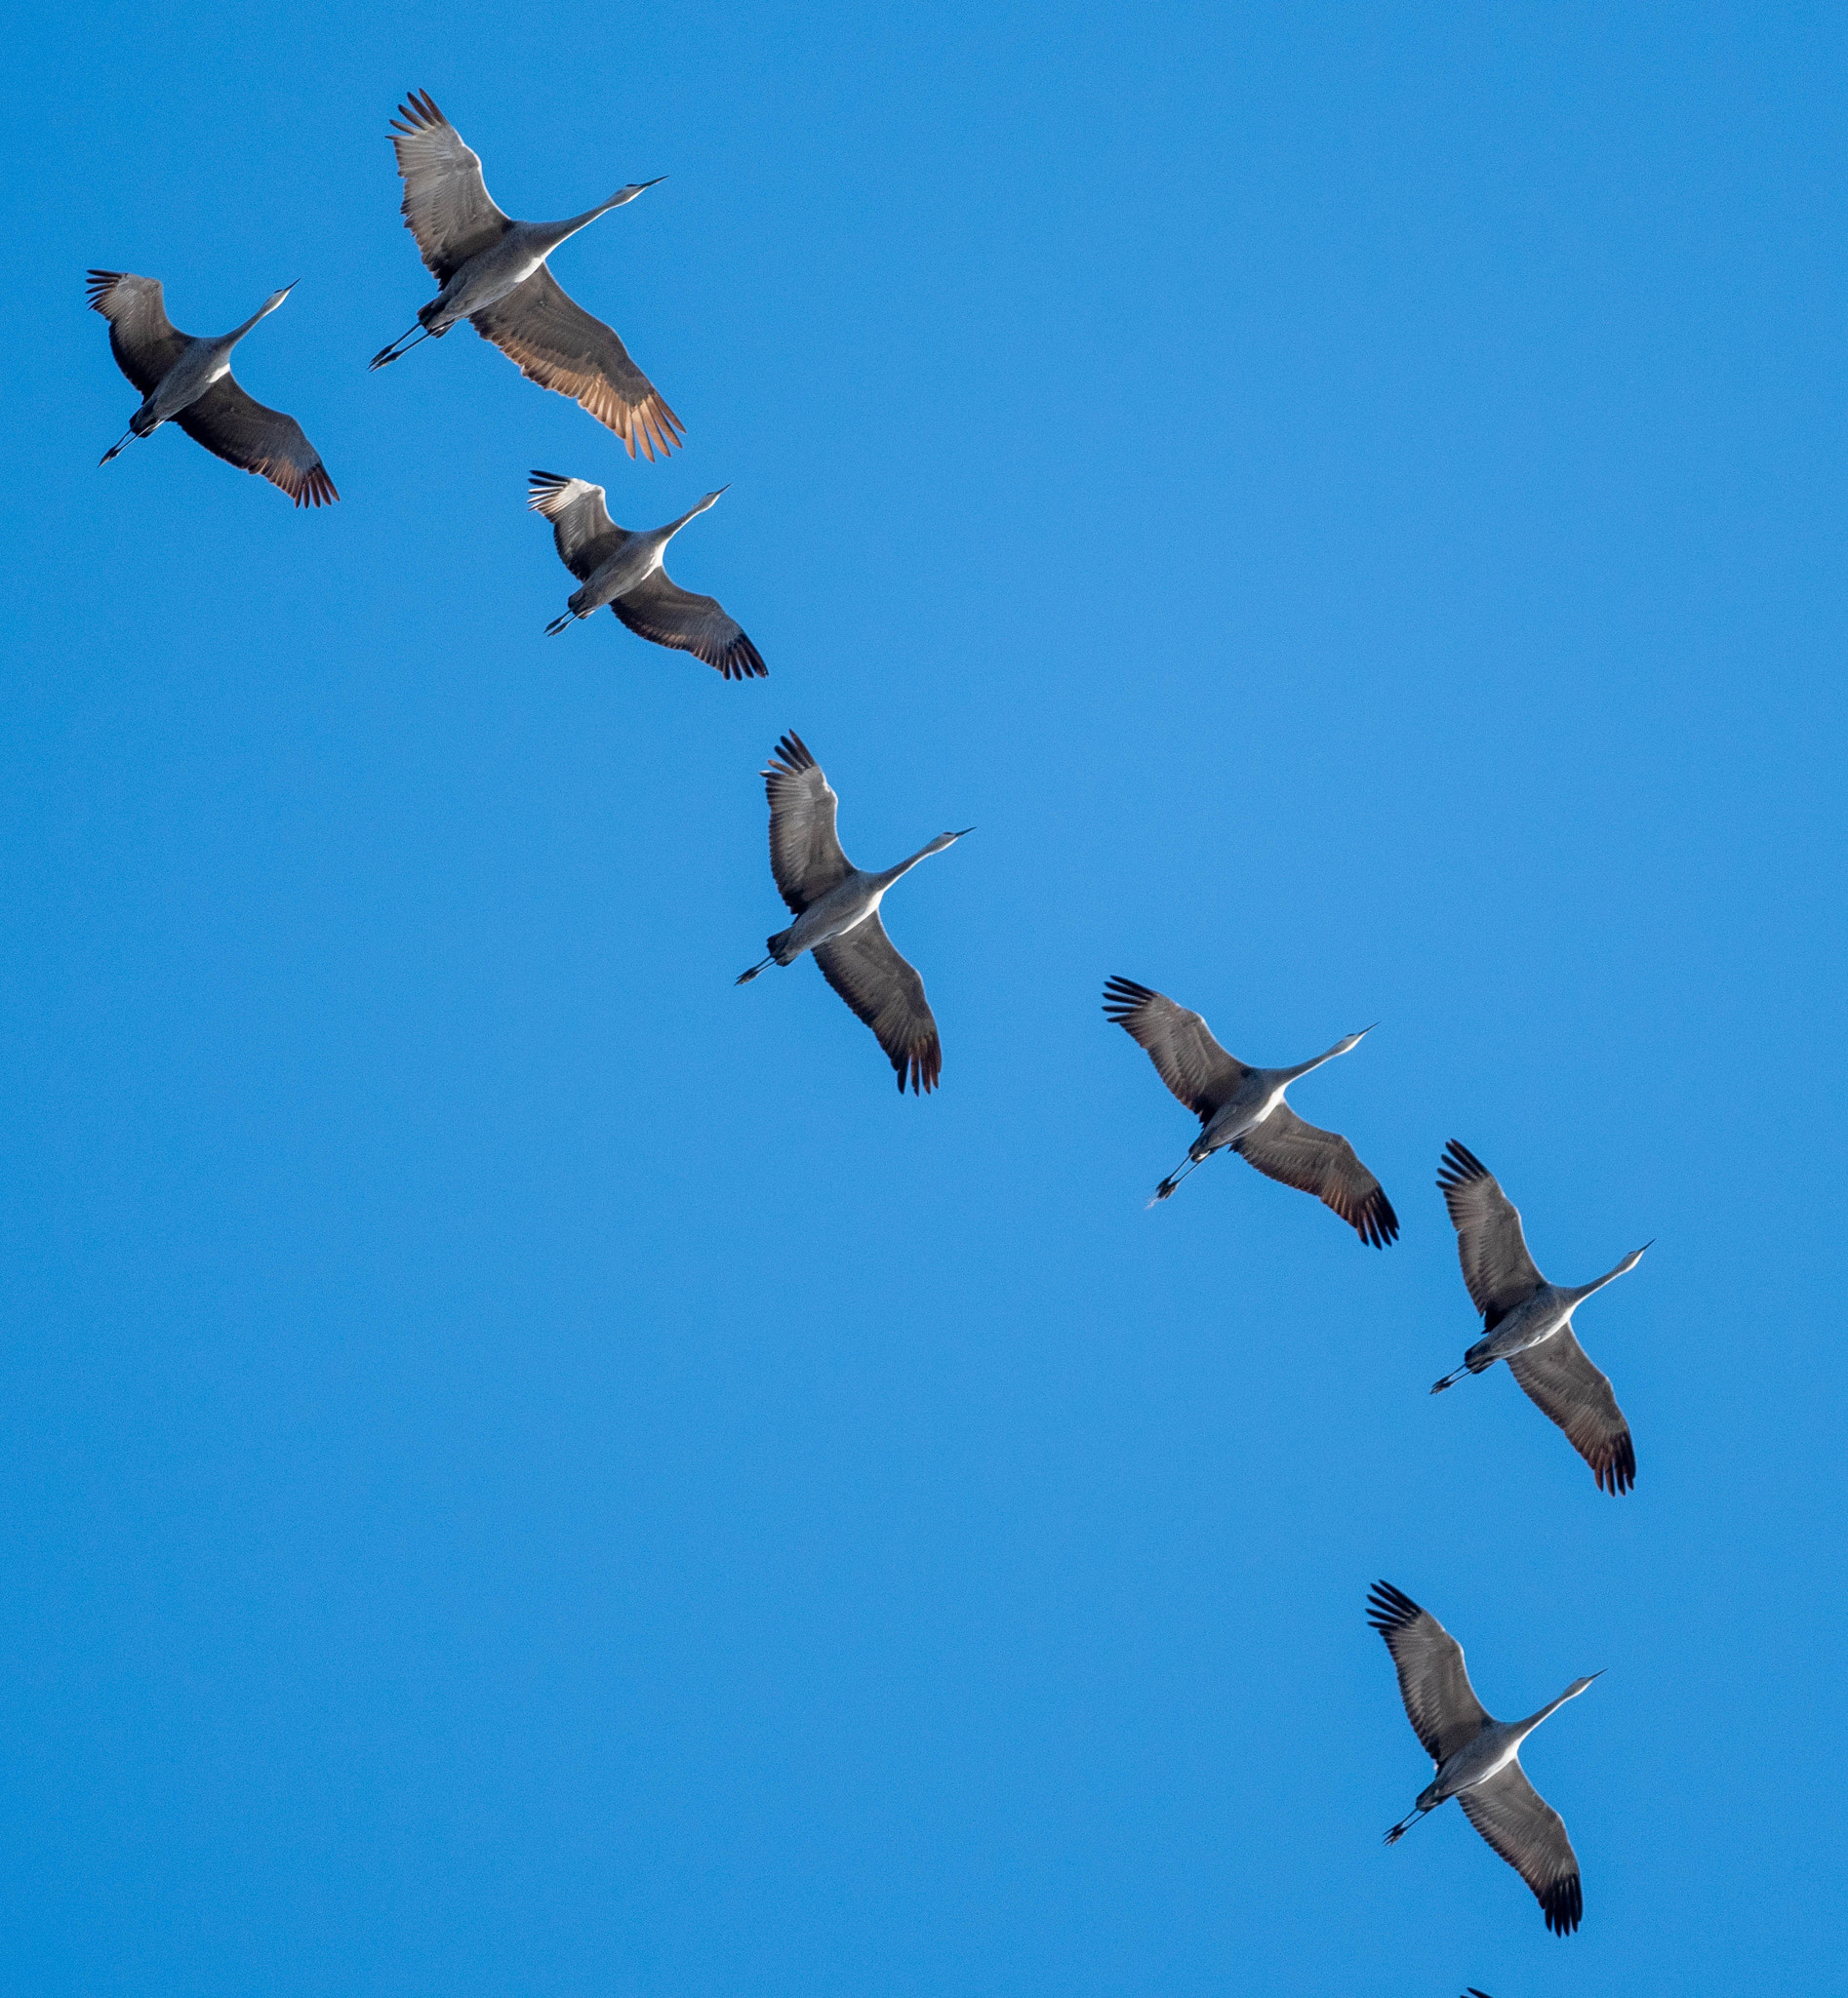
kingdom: Animalia
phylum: Chordata
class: Aves
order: Gruiformes
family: Gruidae
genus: Grus
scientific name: Grus canadensis
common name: Sandhill crane
